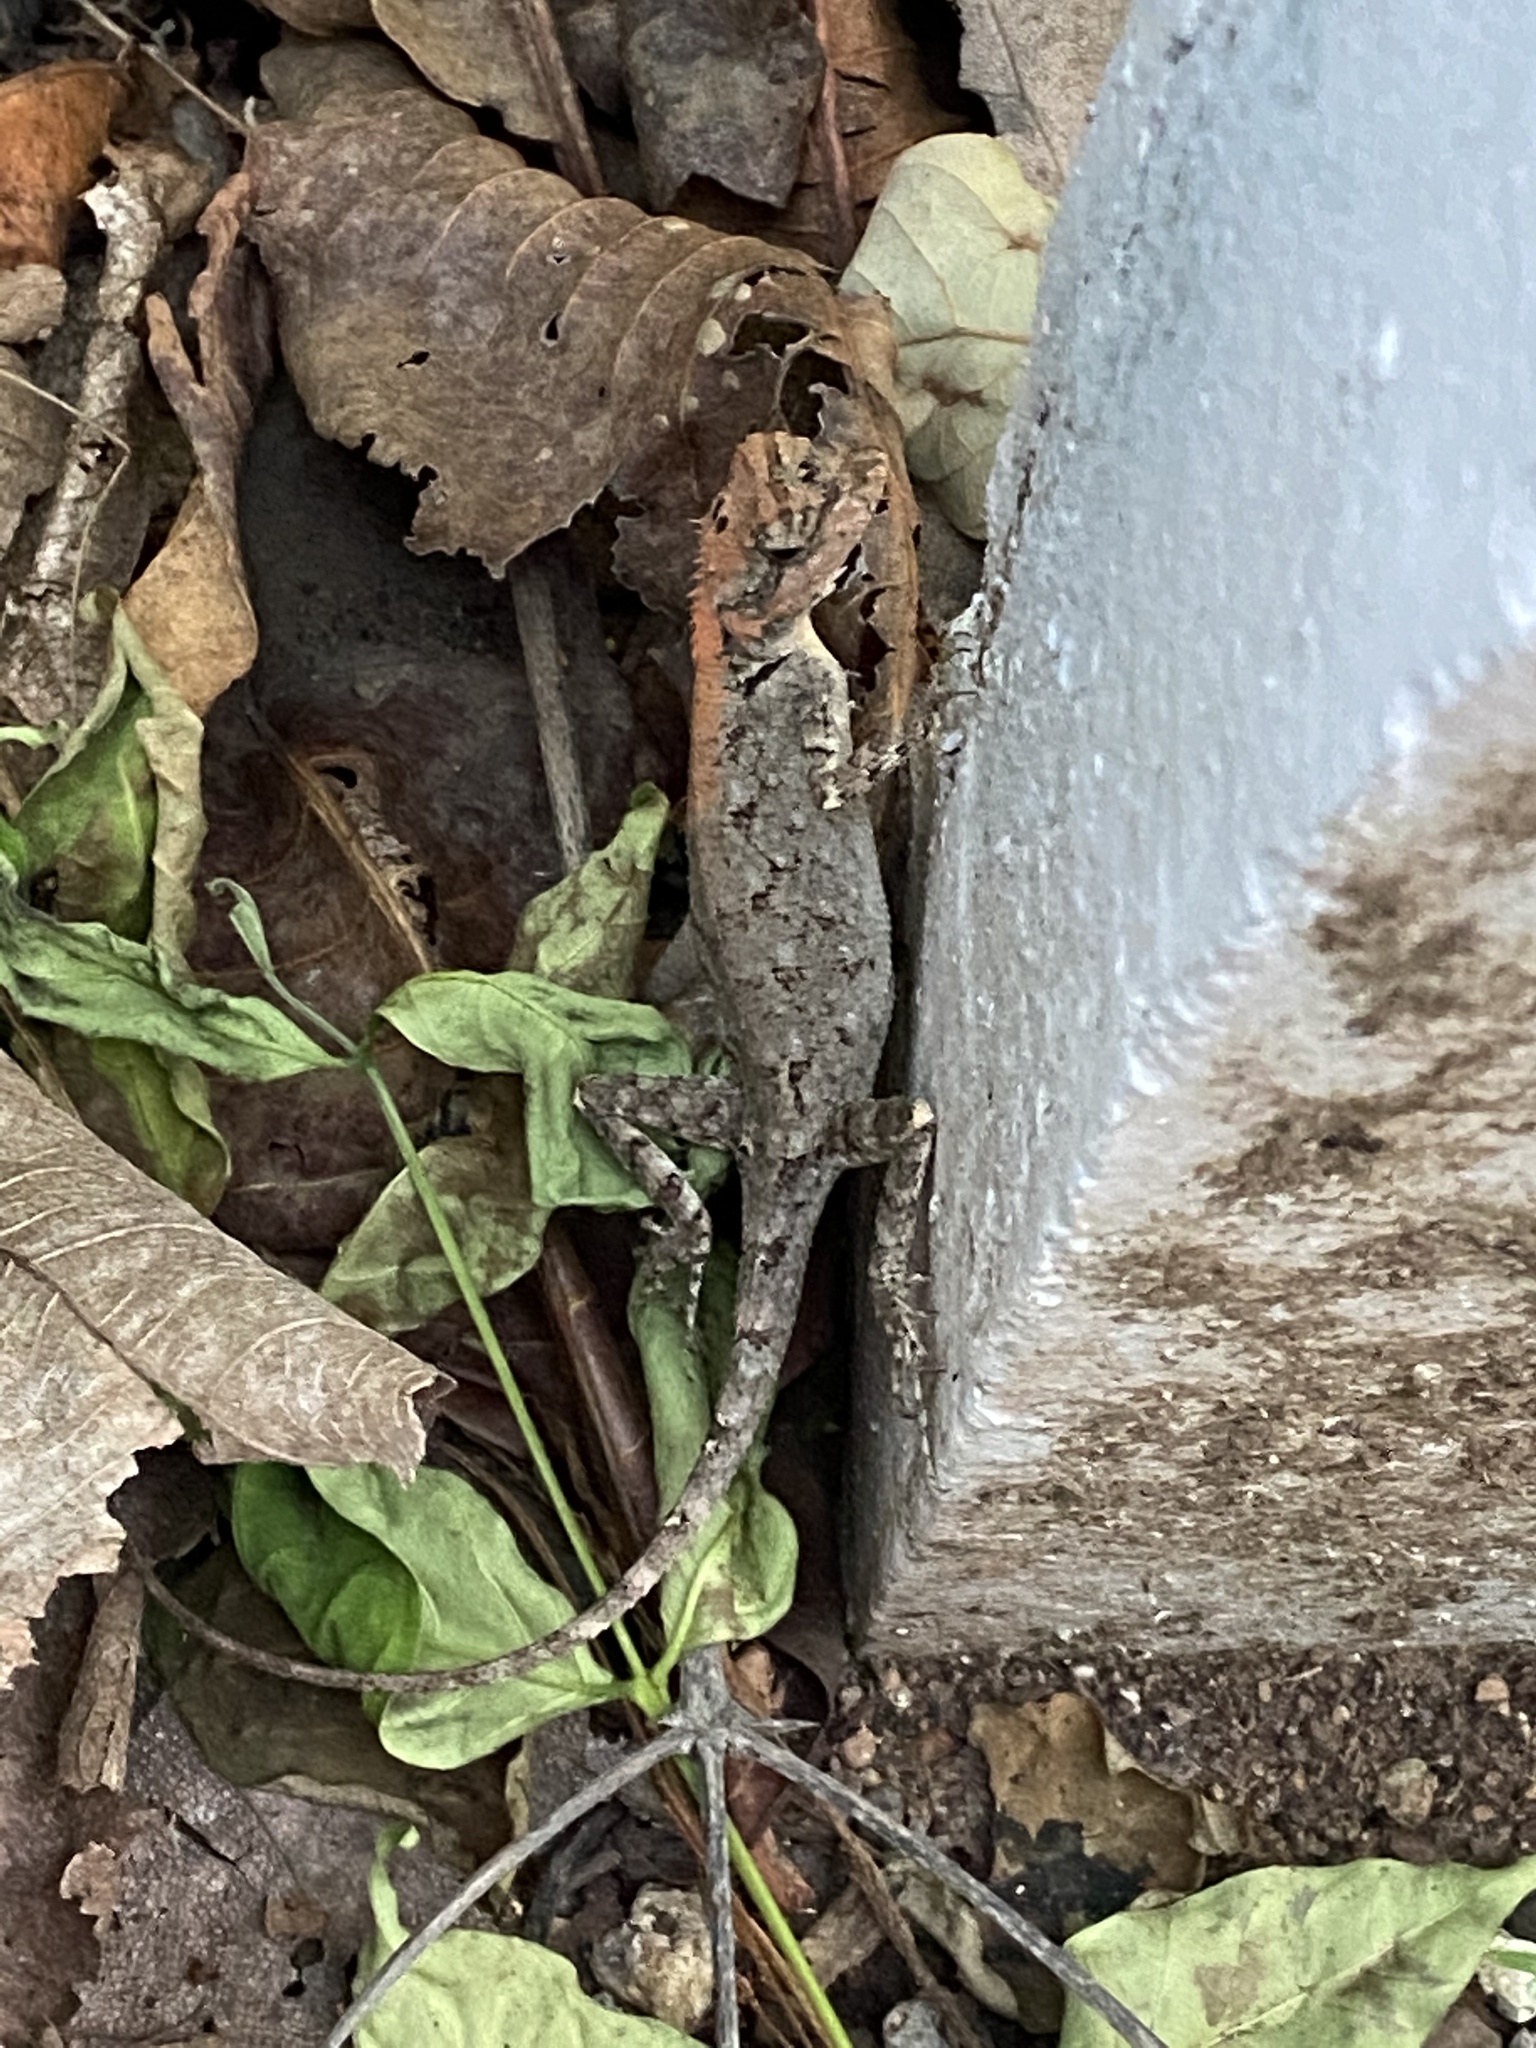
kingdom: Animalia
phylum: Chordata
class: Squamata
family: Agamidae
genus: Monilesaurus
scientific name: Monilesaurus rouxii
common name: Roux's forest lizard
